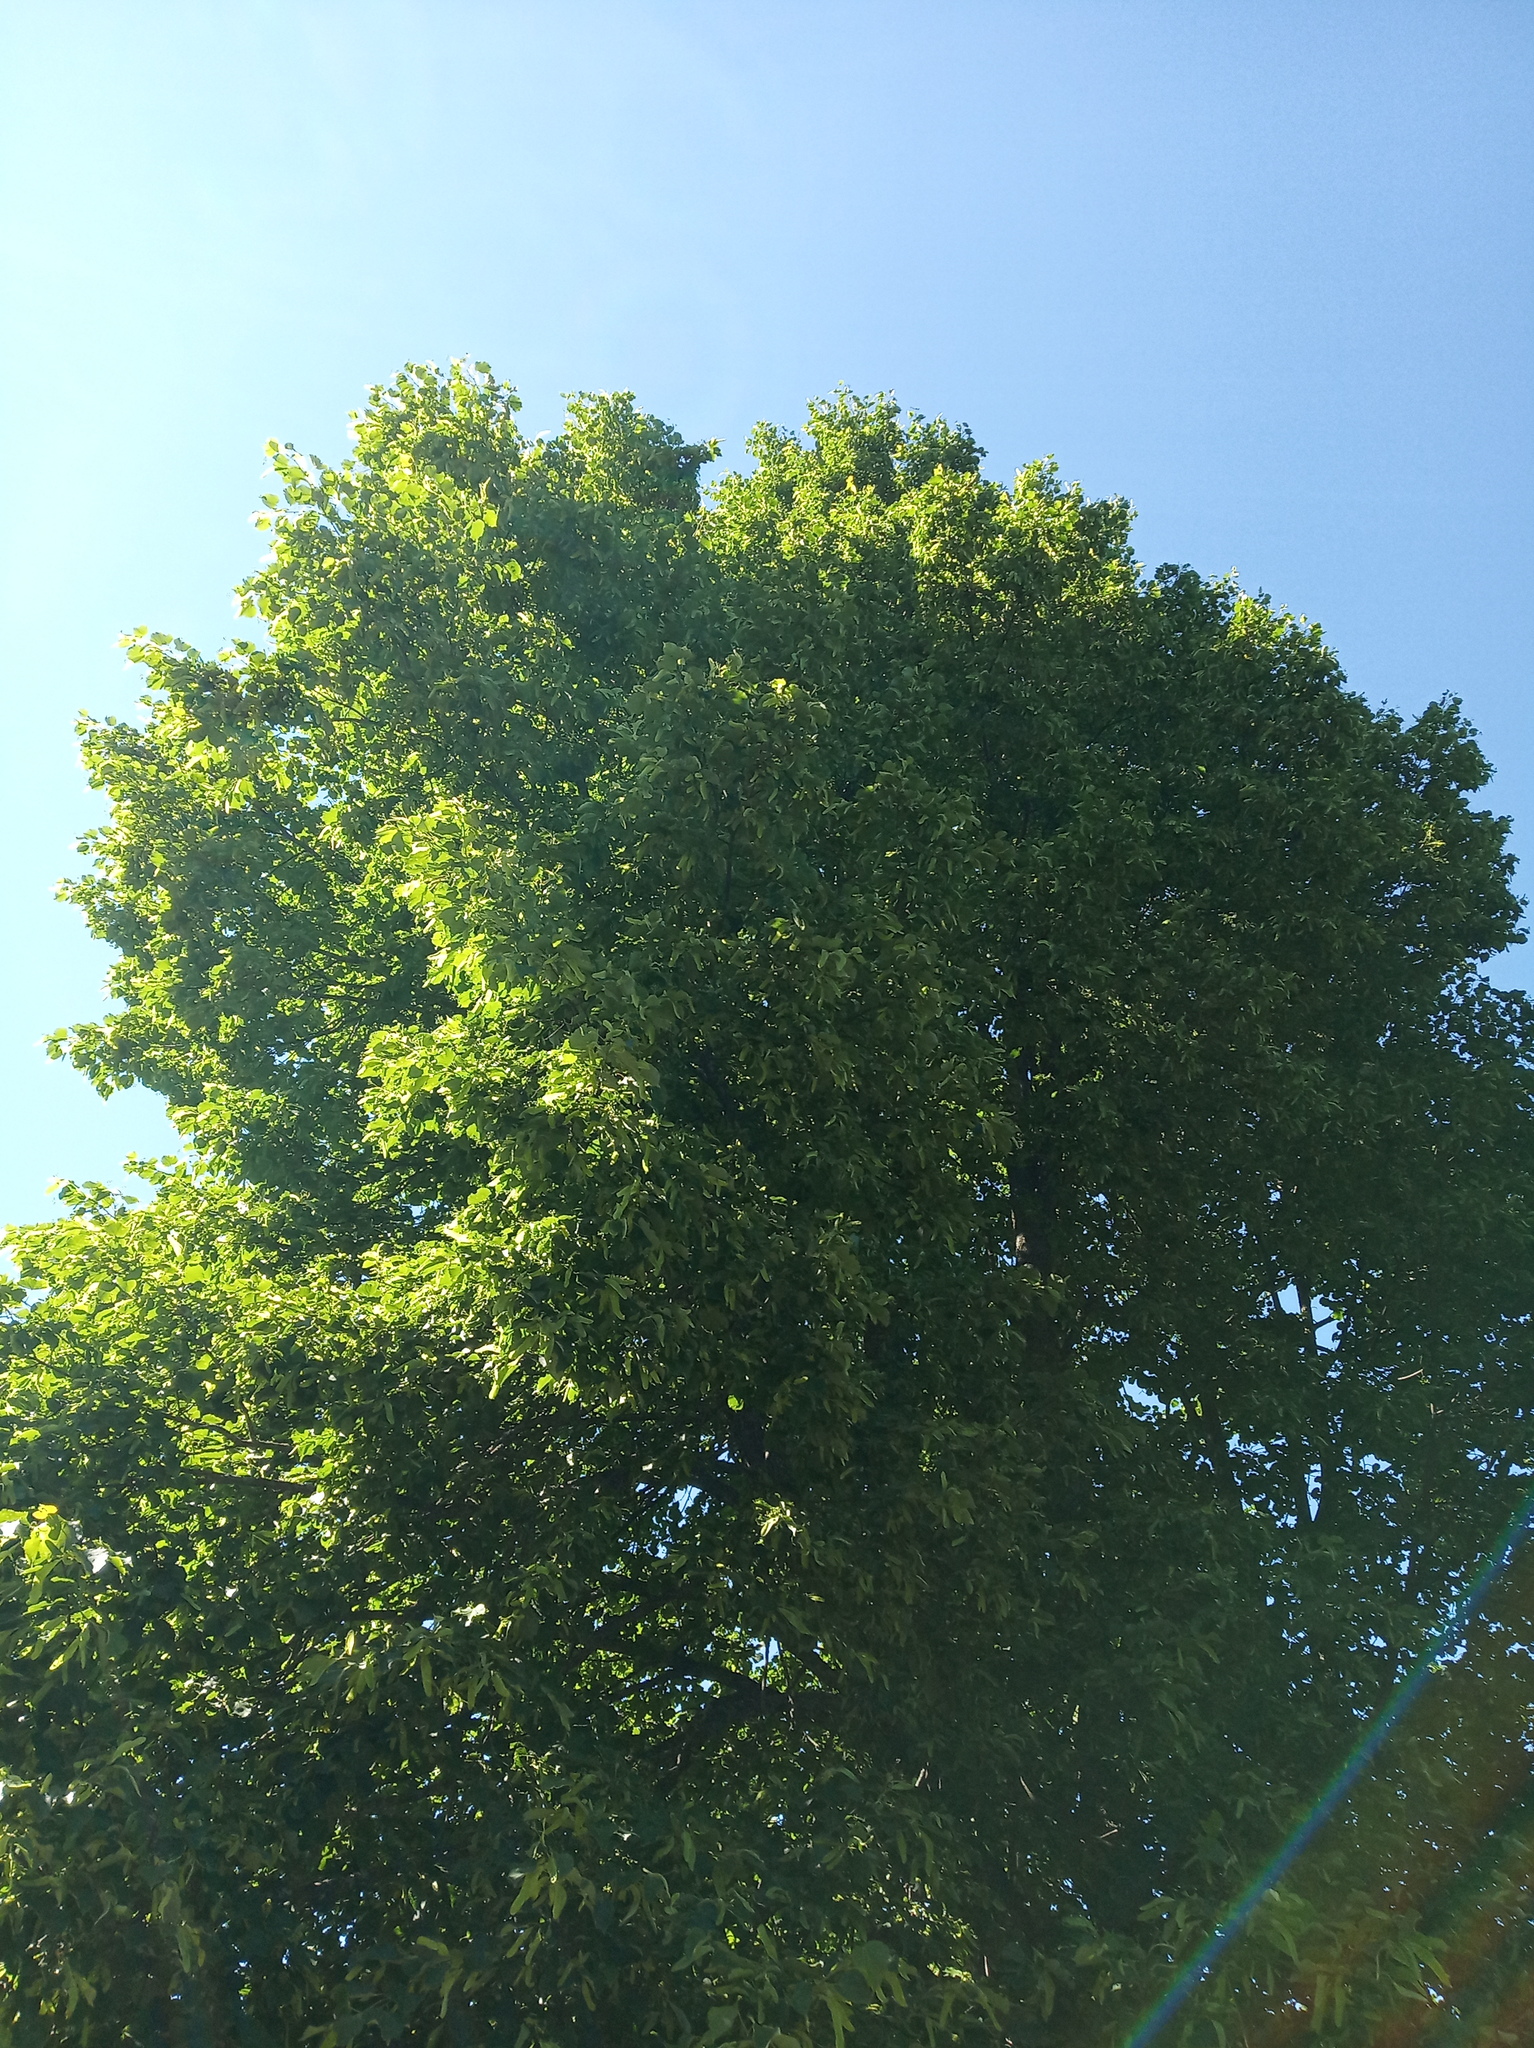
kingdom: Plantae
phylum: Tracheophyta
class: Magnoliopsida
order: Malvales
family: Malvaceae
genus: Tilia
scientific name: Tilia cordata
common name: Small-leaved lime
